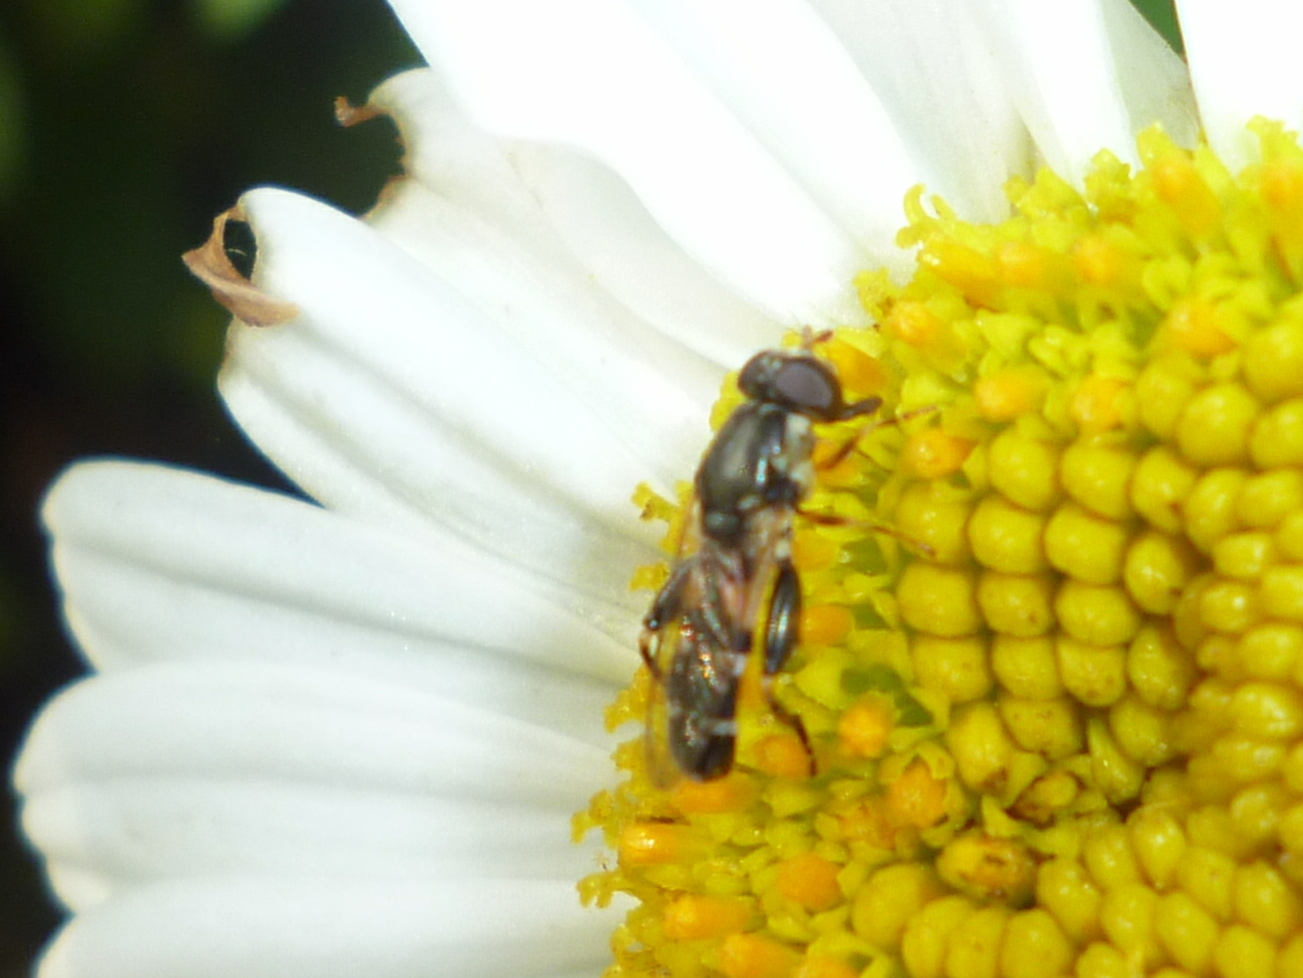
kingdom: Animalia
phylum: Arthropoda
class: Insecta
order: Diptera
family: Syrphidae
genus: Syritta
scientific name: Syritta pipiens
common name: Hover fly
